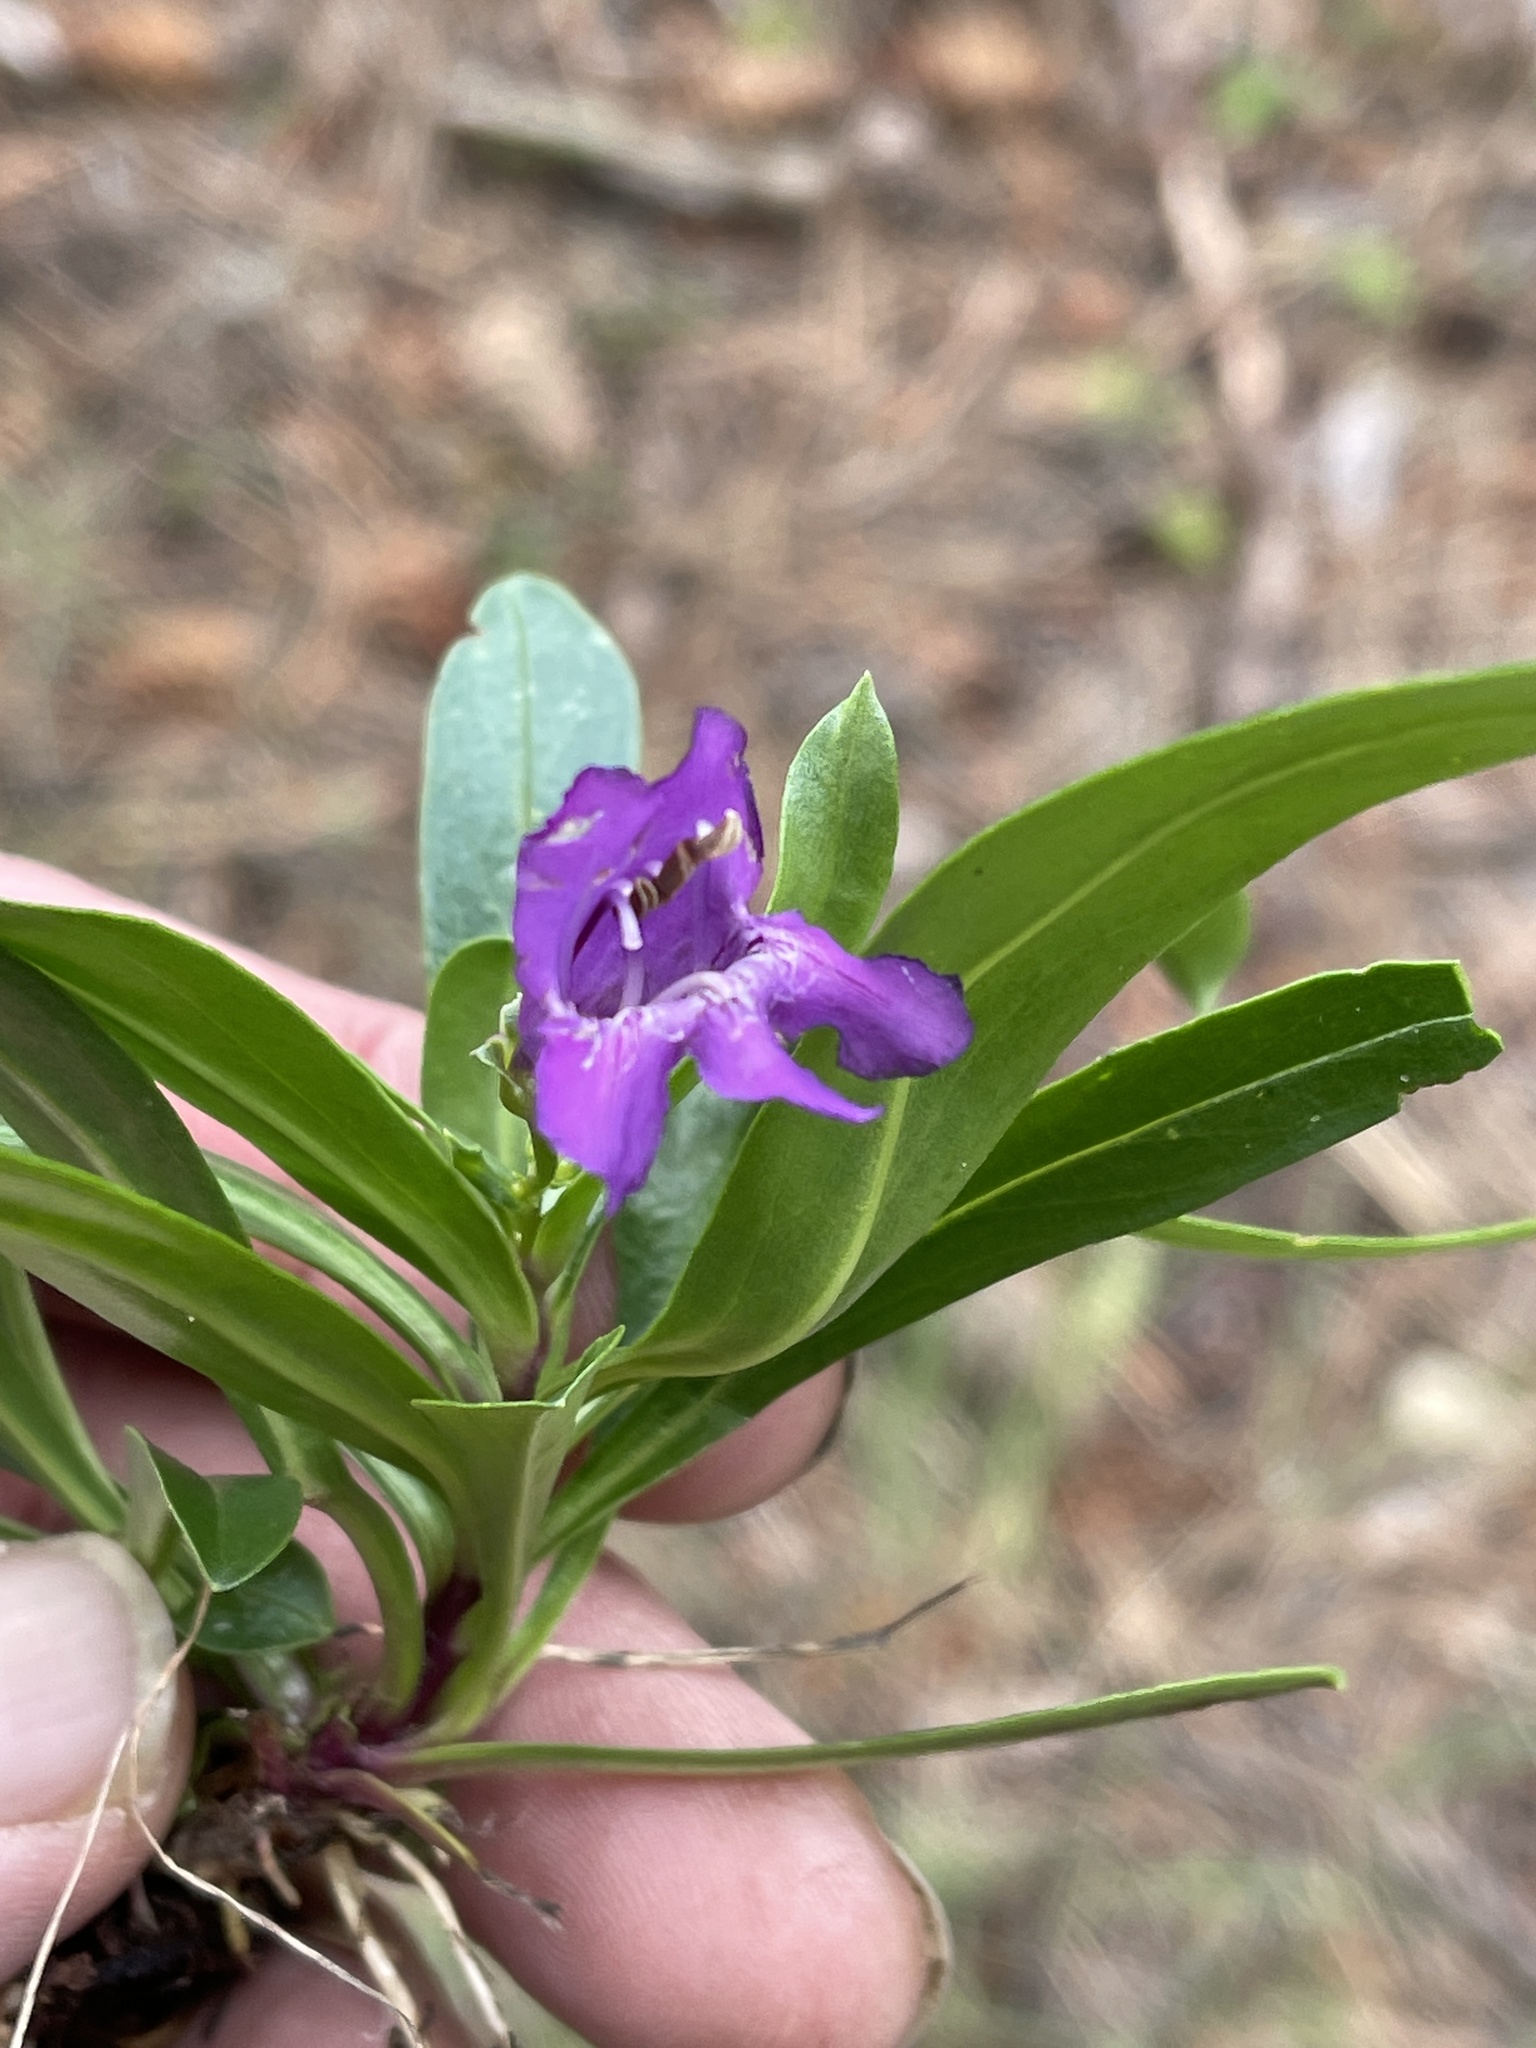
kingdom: Plantae
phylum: Tracheophyta
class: Magnoliopsida
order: Lamiales
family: Plantaginaceae
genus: Penstemon
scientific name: Penstemon neomexicanus
